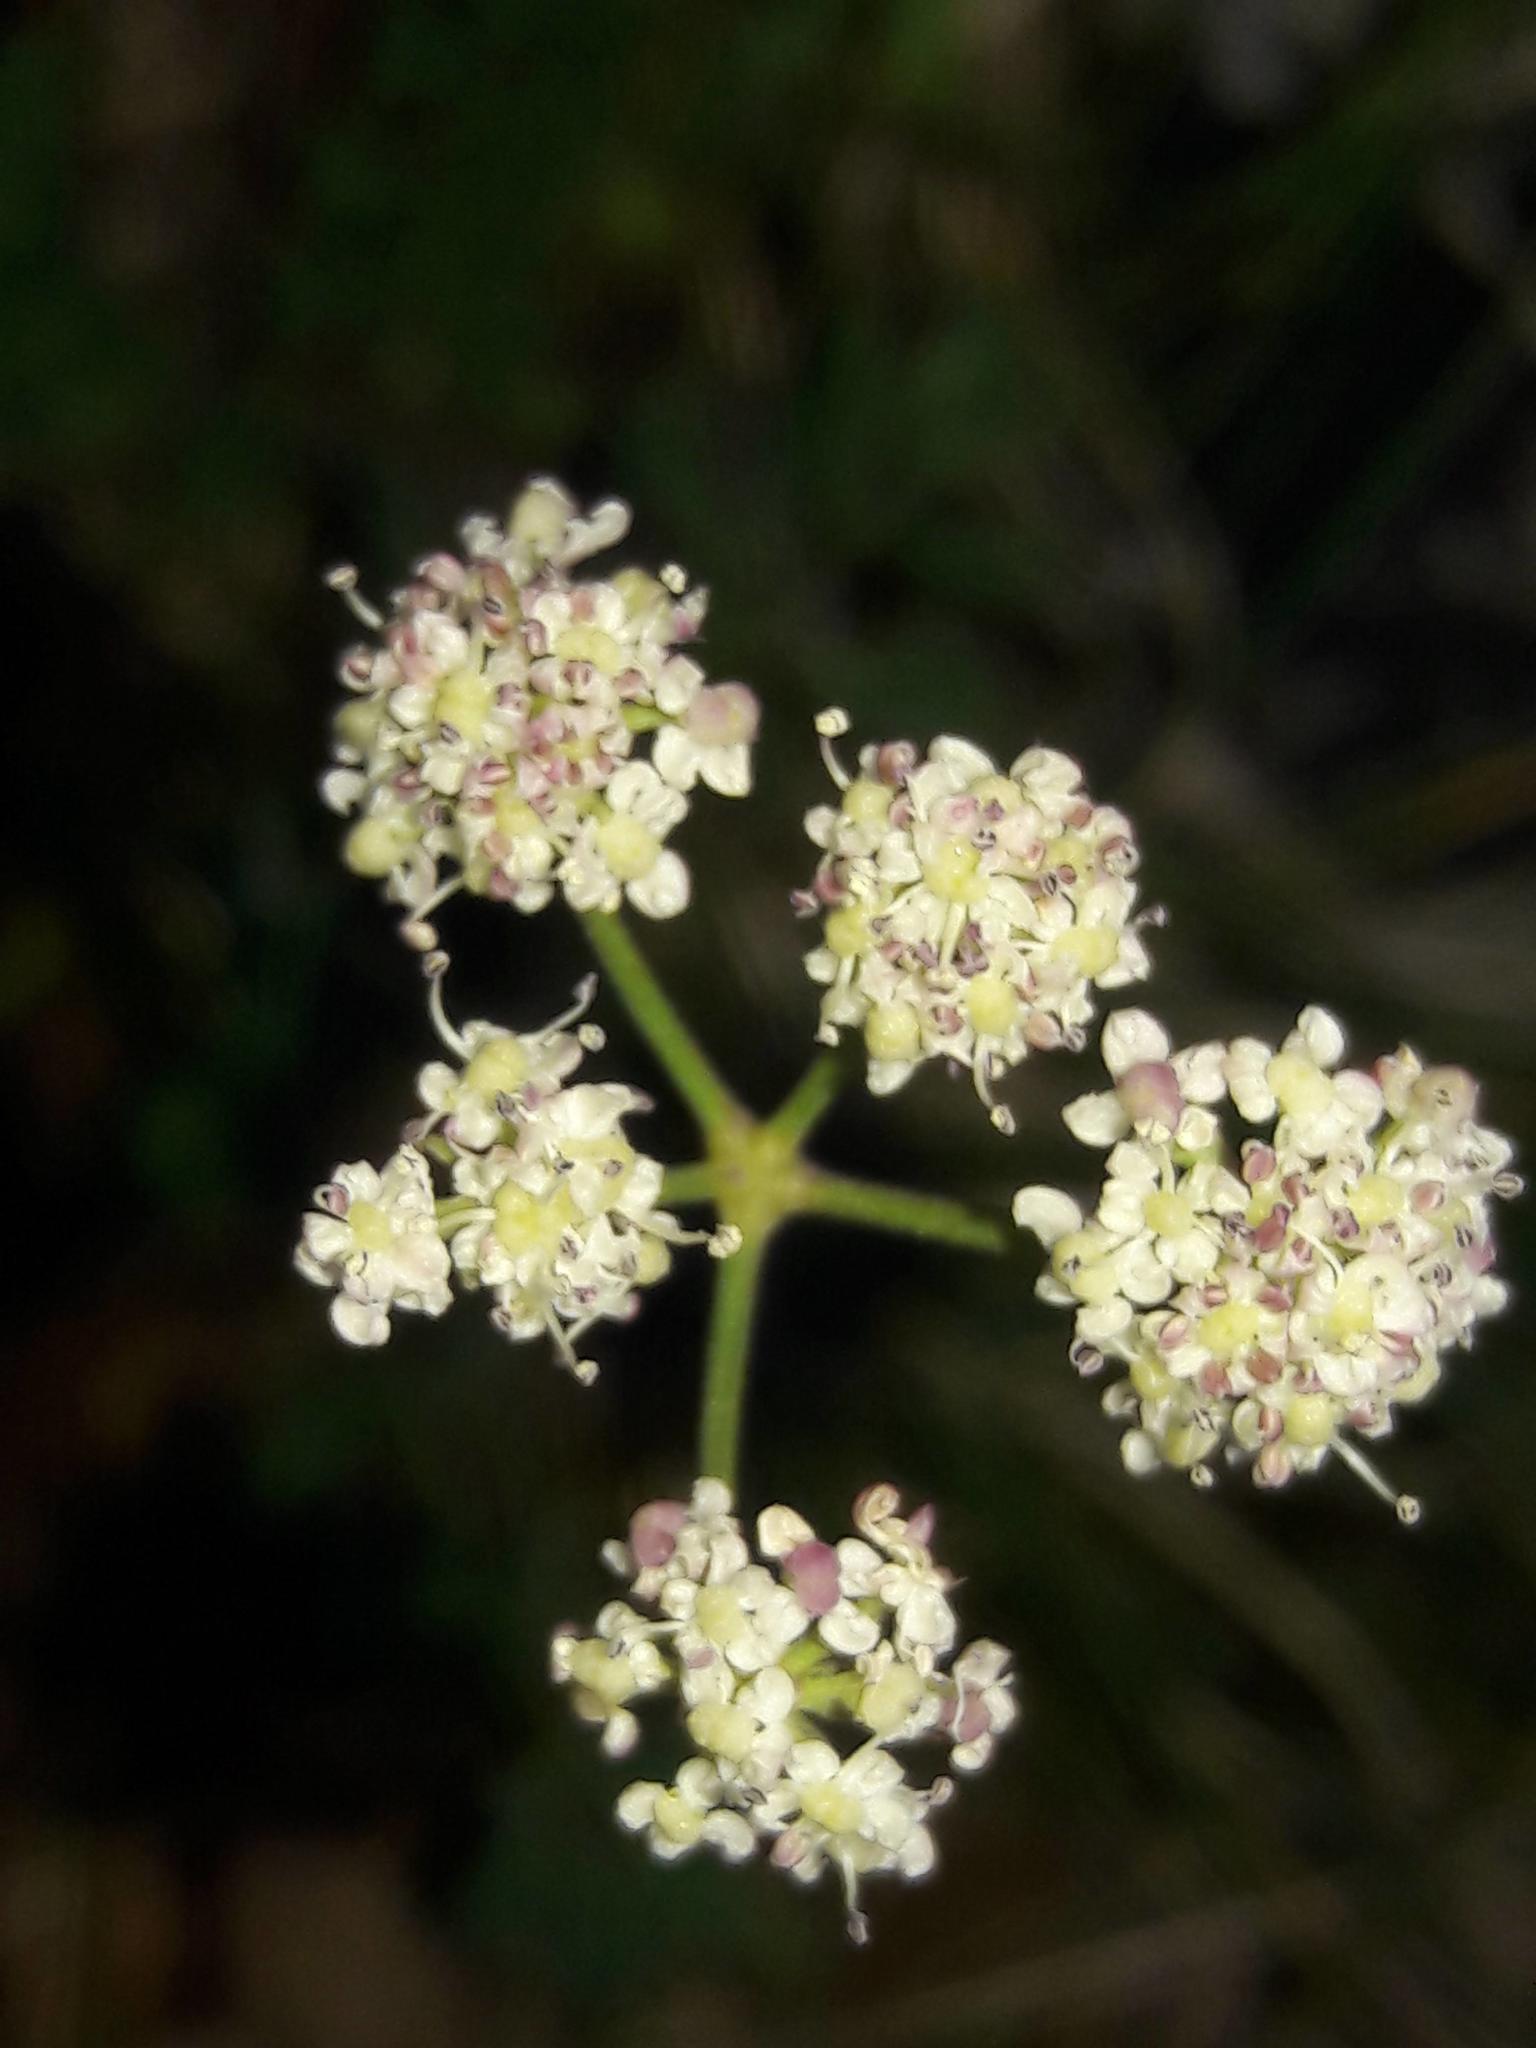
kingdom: Plantae
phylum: Tracheophyta
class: Magnoliopsida
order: Apiales
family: Apiaceae
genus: Seseli
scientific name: Seseli montanum
